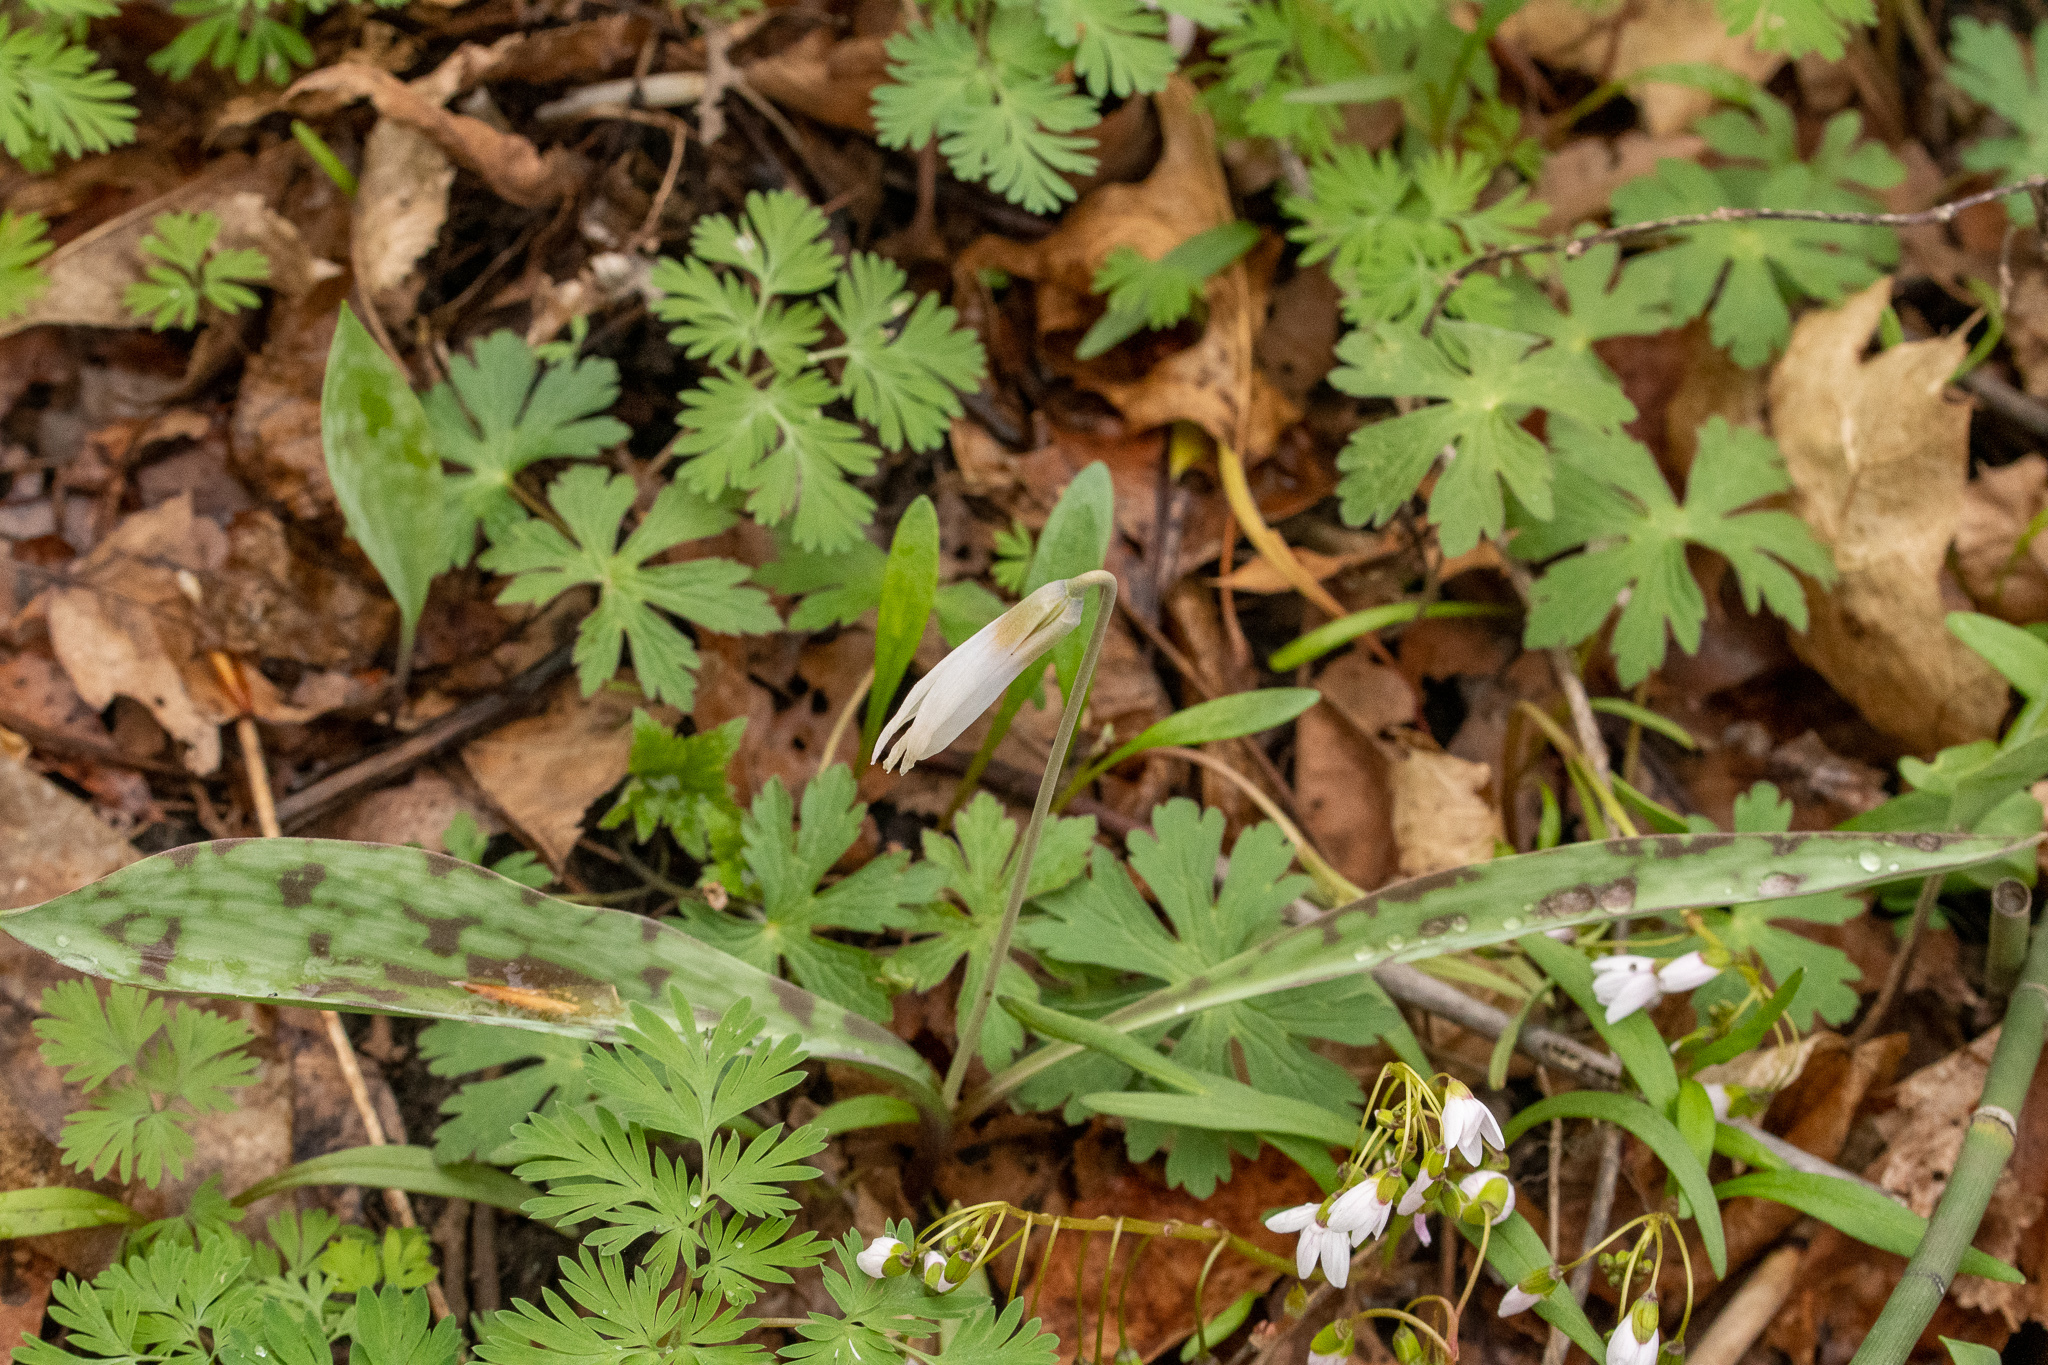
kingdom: Plantae
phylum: Tracheophyta
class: Liliopsida
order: Liliales
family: Liliaceae
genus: Erythronium
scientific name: Erythronium albidum
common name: White trout-lily
